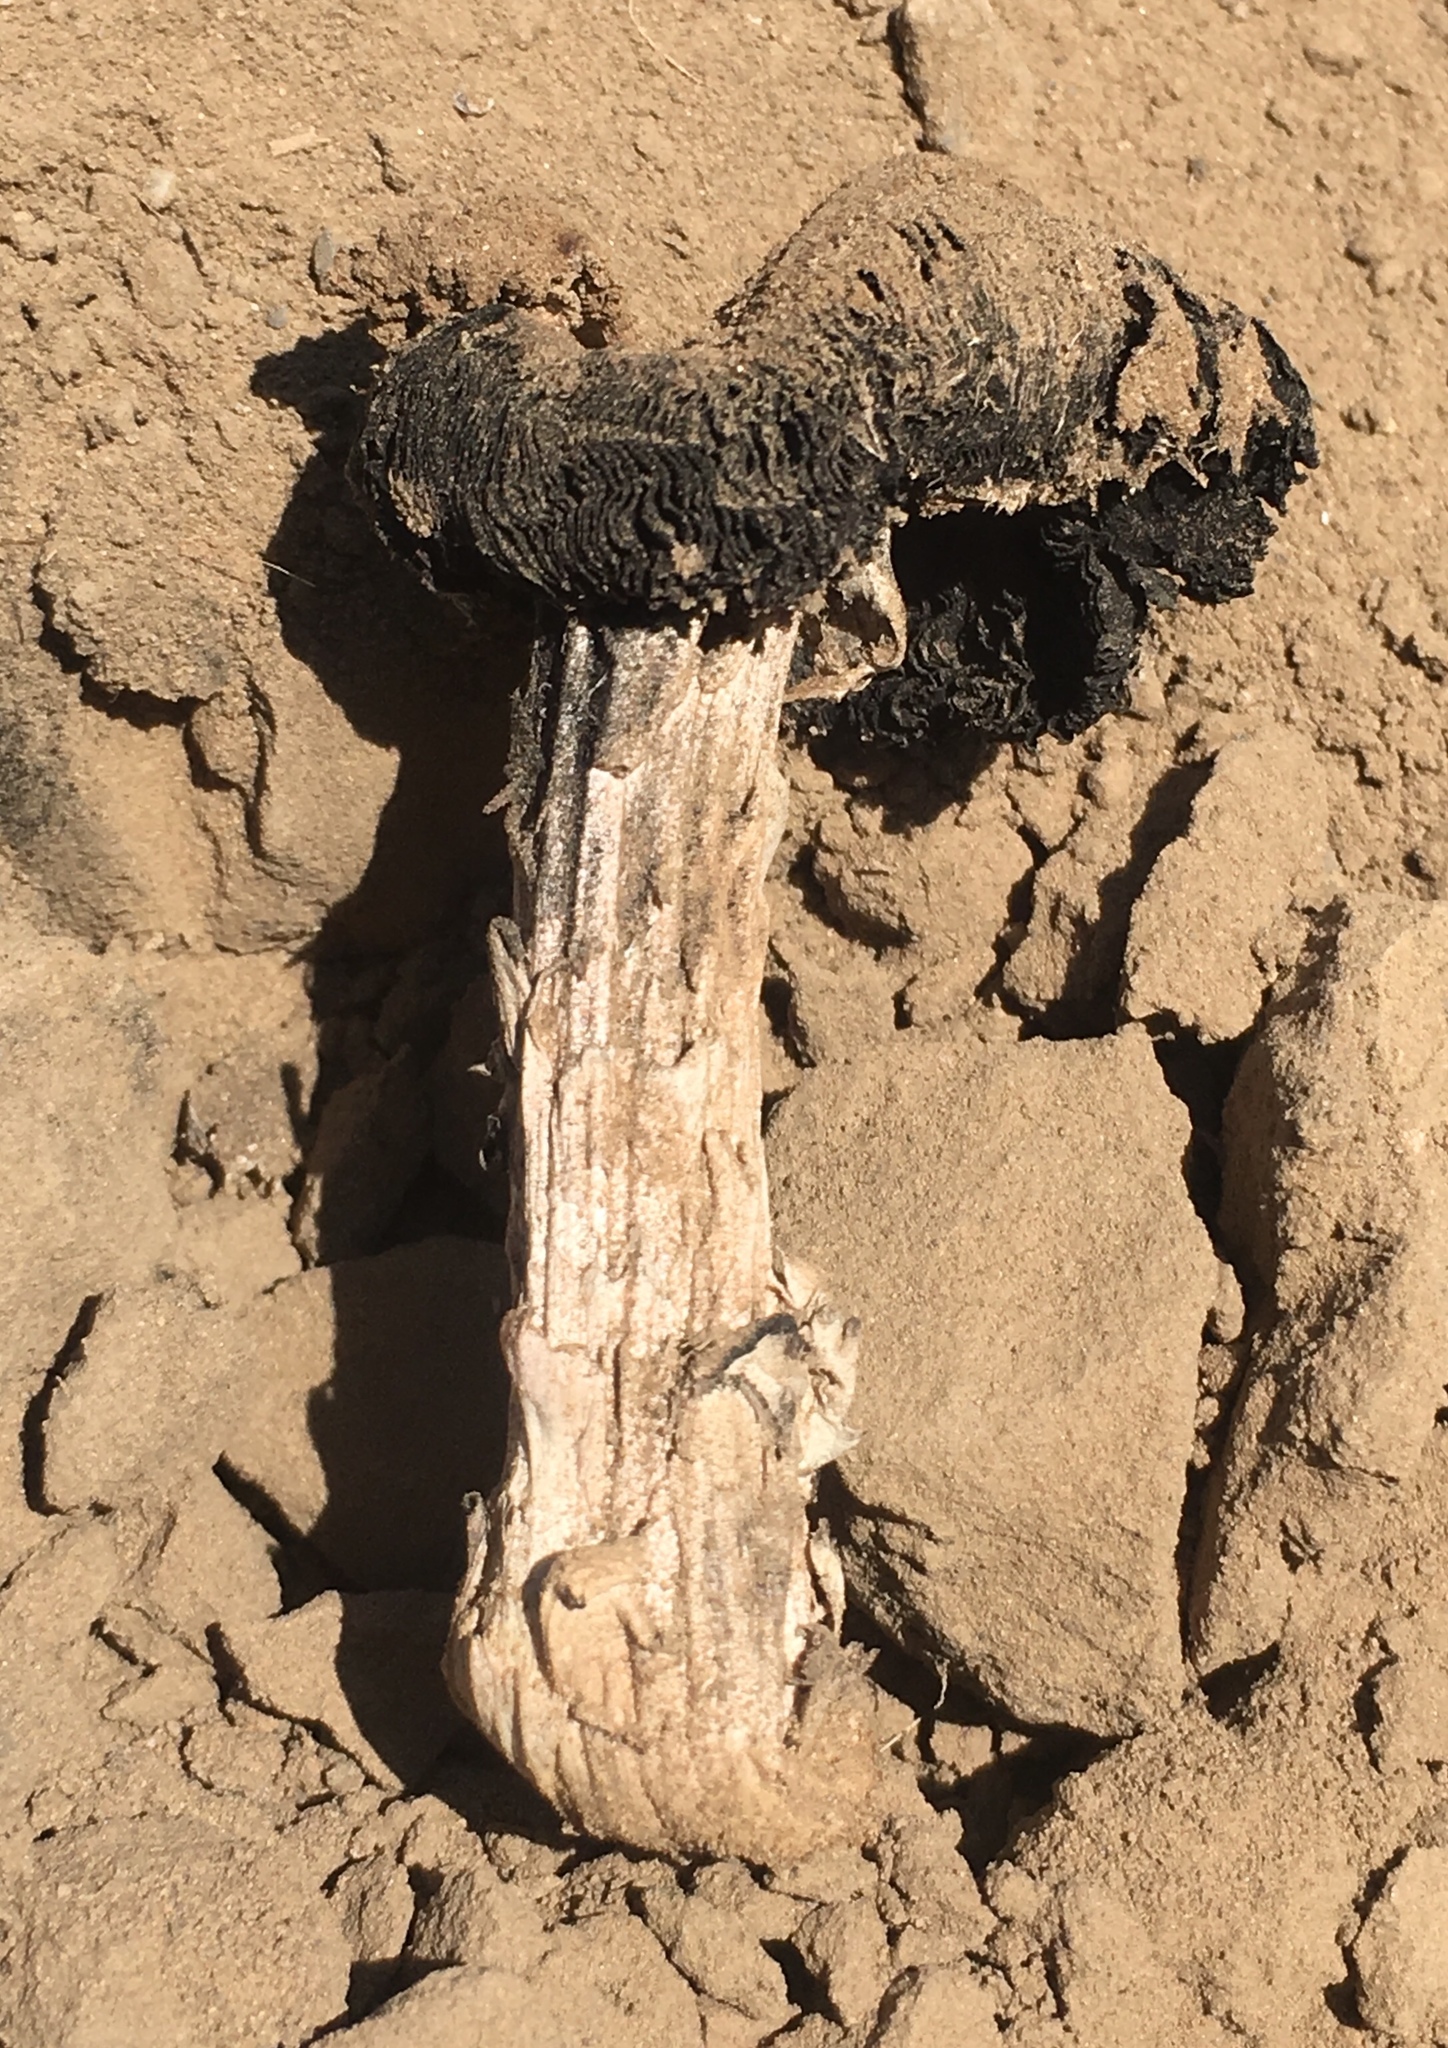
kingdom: Fungi
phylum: Basidiomycota
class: Agaricomycetes
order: Agaricales
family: Agaricaceae
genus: Montagnea
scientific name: Montagnea arenaria
